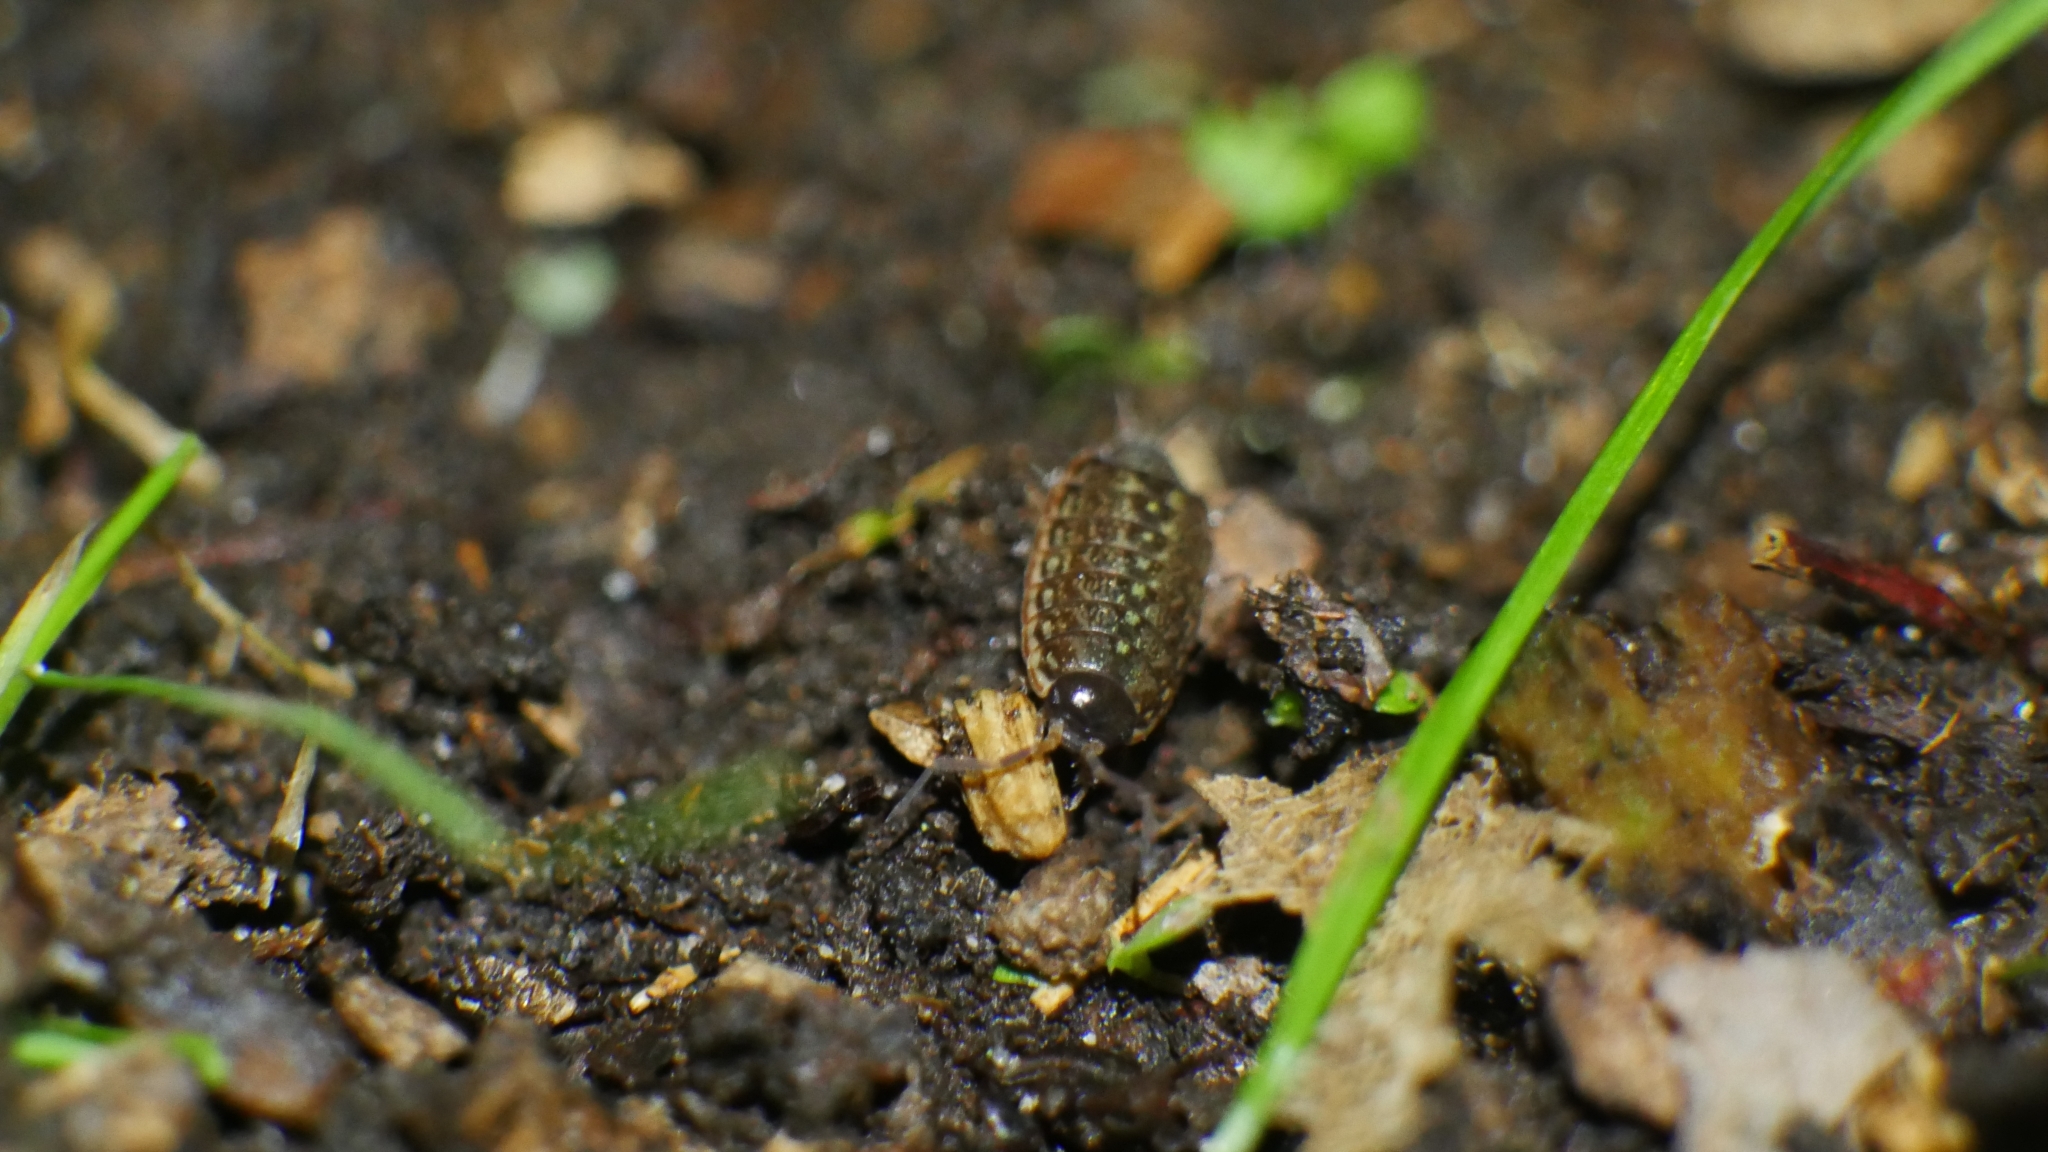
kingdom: Animalia
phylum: Arthropoda
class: Malacostraca
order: Isopoda
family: Philosciidae
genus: Philoscia
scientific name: Philoscia muscorum
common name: Common striped woodlouse
